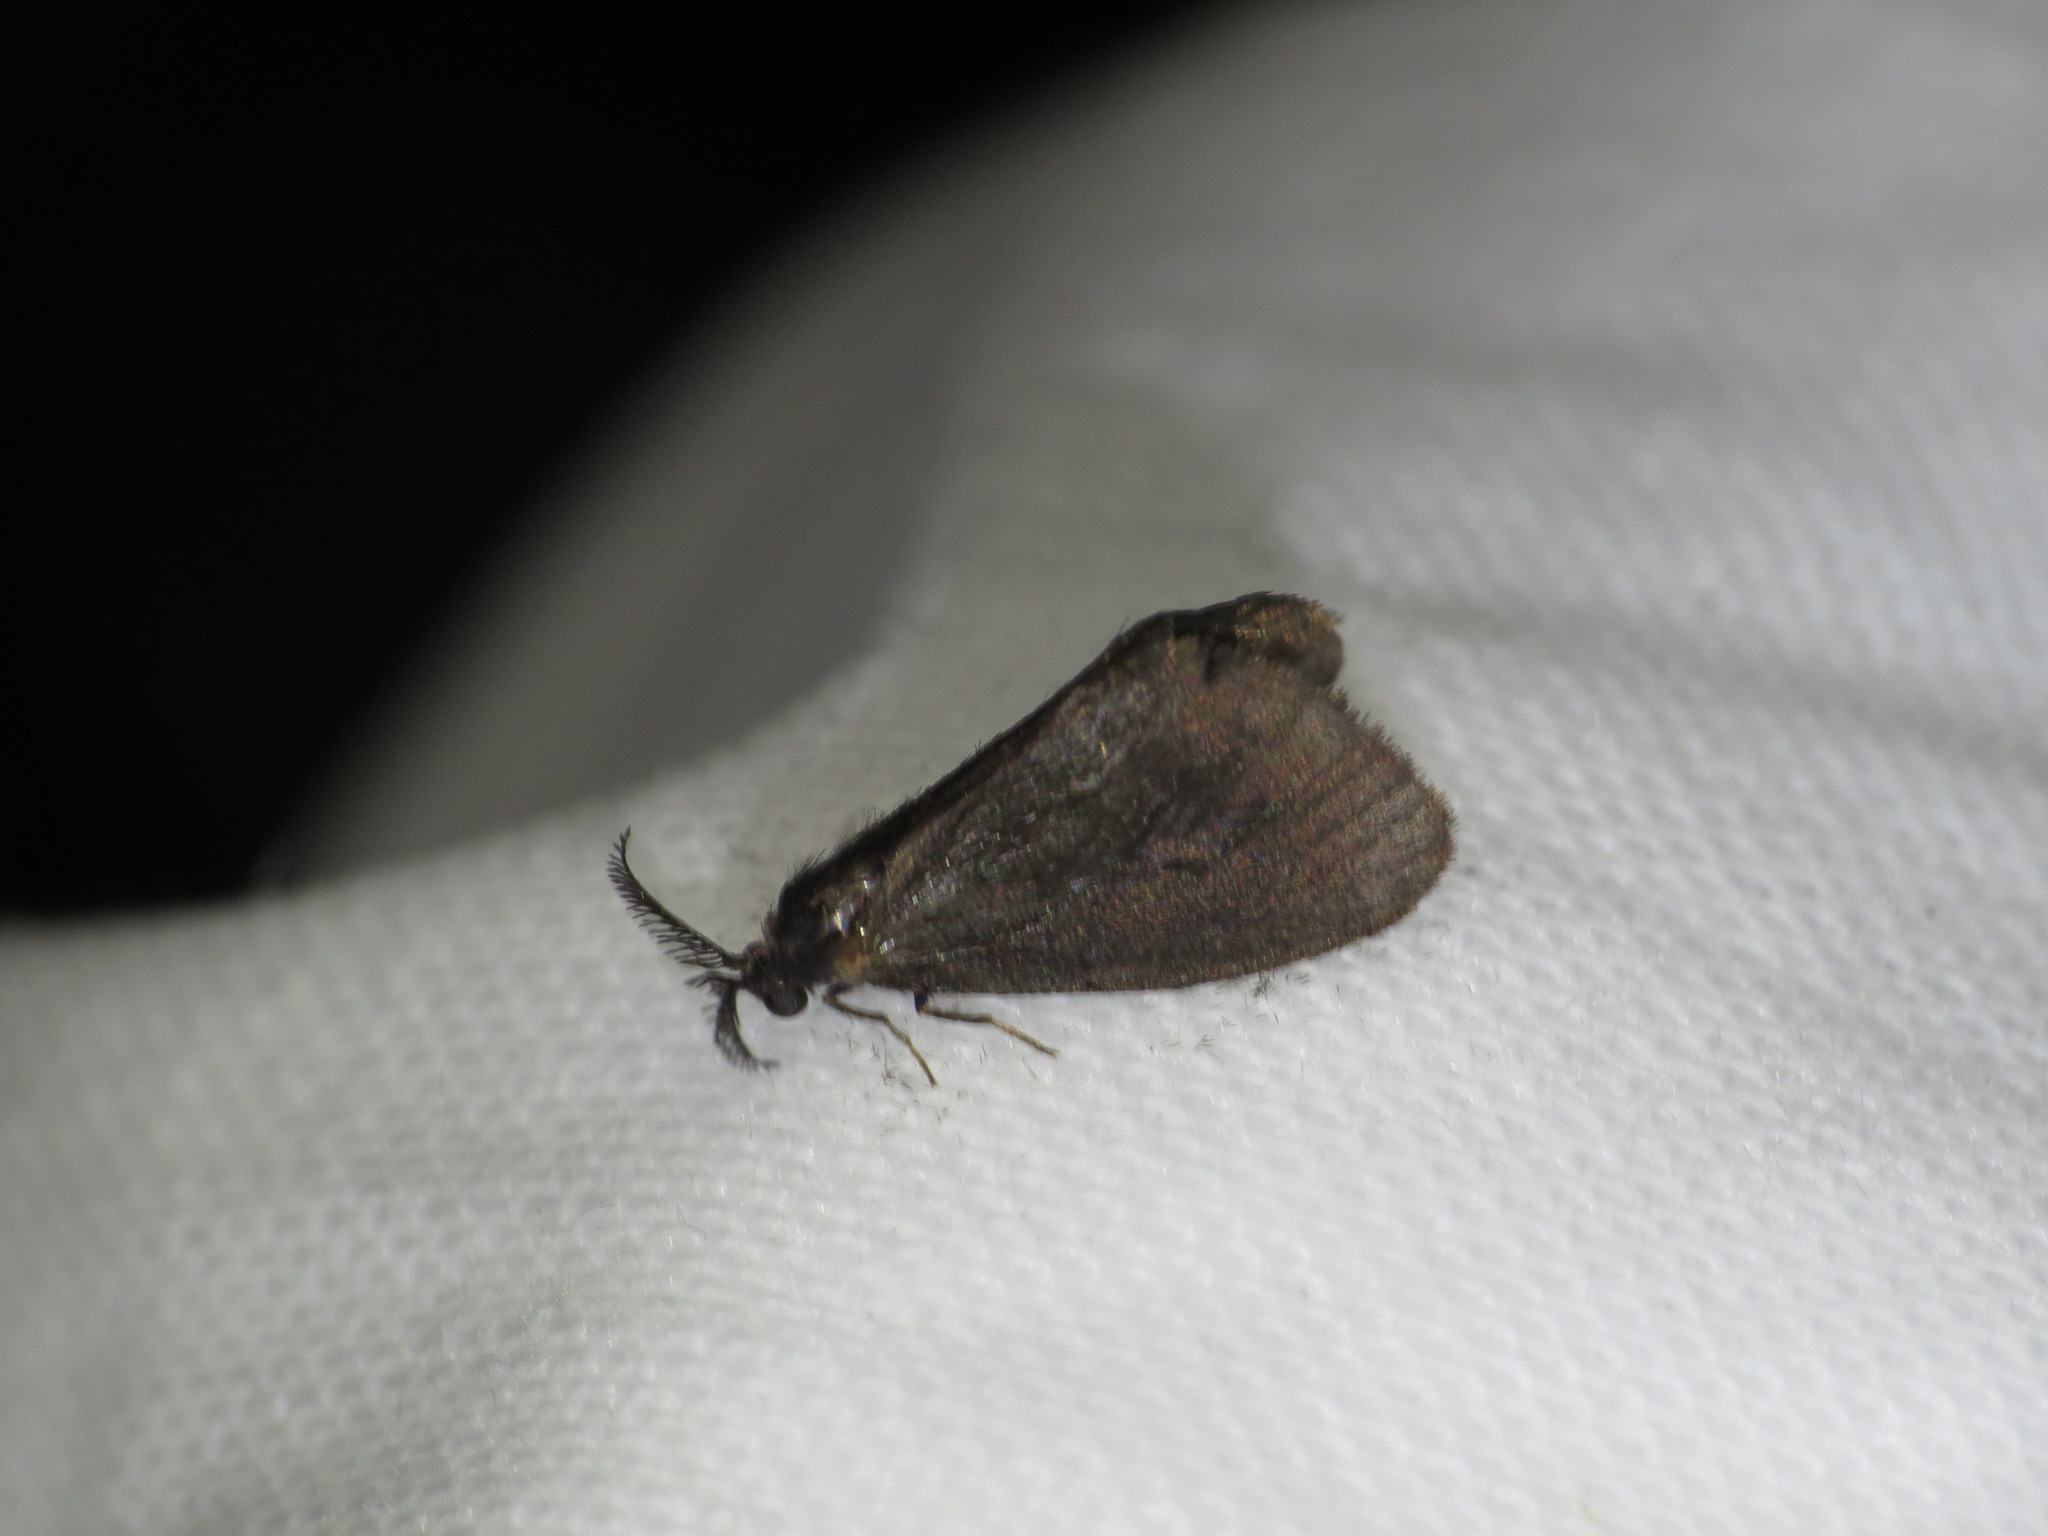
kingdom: Animalia
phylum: Arthropoda
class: Insecta
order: Lepidoptera
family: Psychidae
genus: Cryptothelea
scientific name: Cryptothelea nigrita
